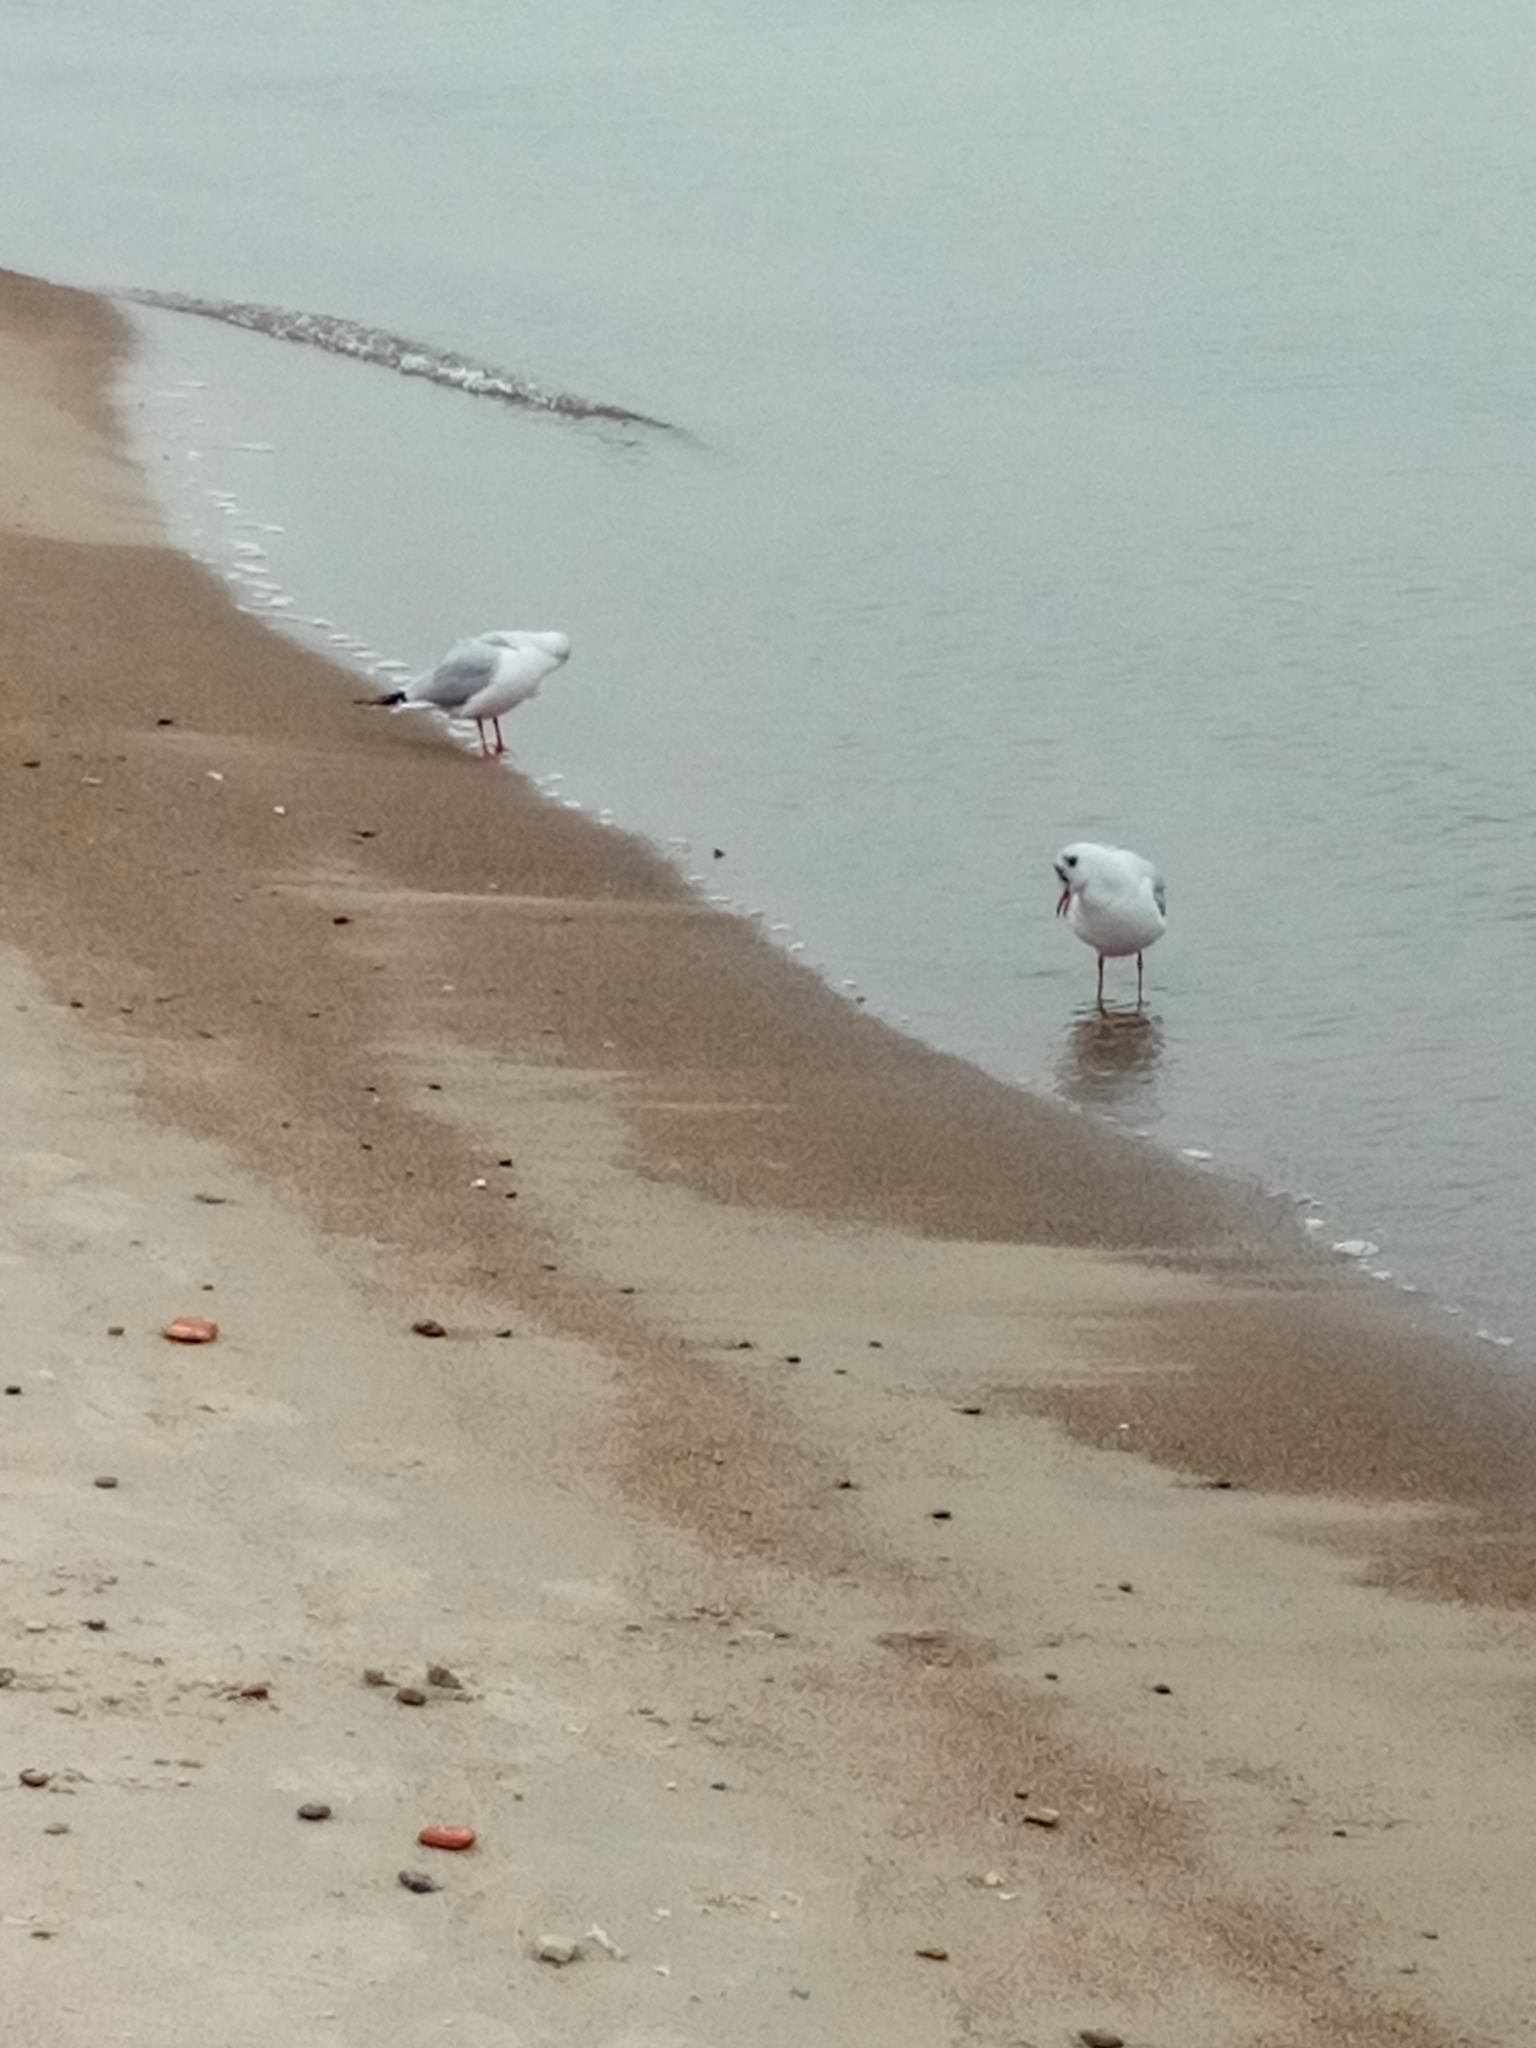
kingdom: Animalia
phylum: Chordata
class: Aves
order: Charadriiformes
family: Laridae
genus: Chroicocephalus
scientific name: Chroicocephalus ridibundus
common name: Black-headed gull
